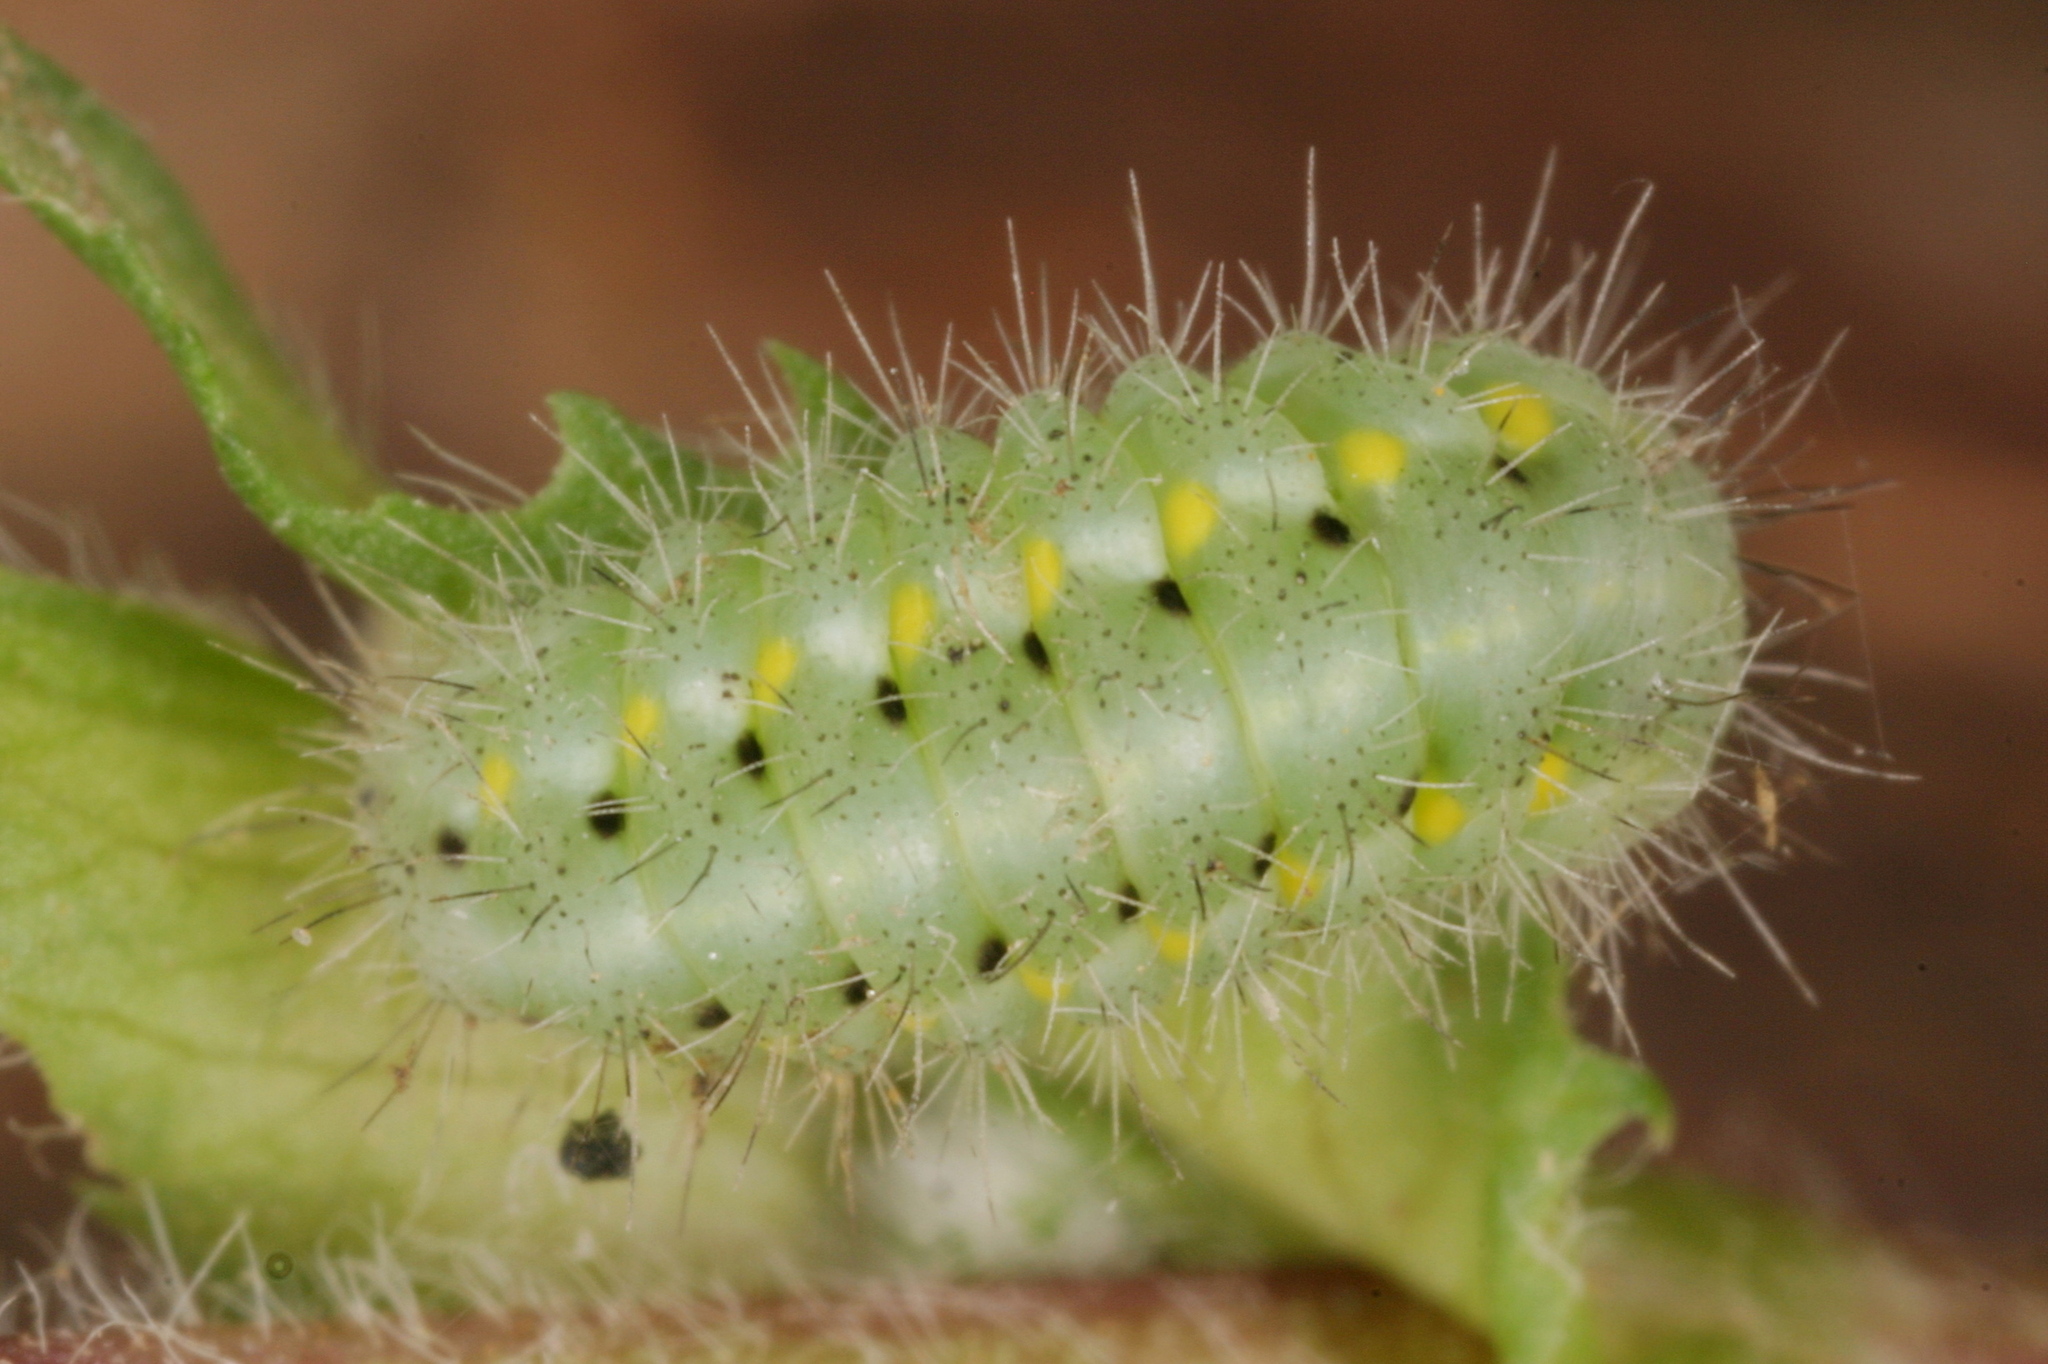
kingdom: Animalia
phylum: Arthropoda
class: Insecta
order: Lepidoptera
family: Zygaenidae
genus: Zygaena
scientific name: Zygaena viciae
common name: New forest burnet
